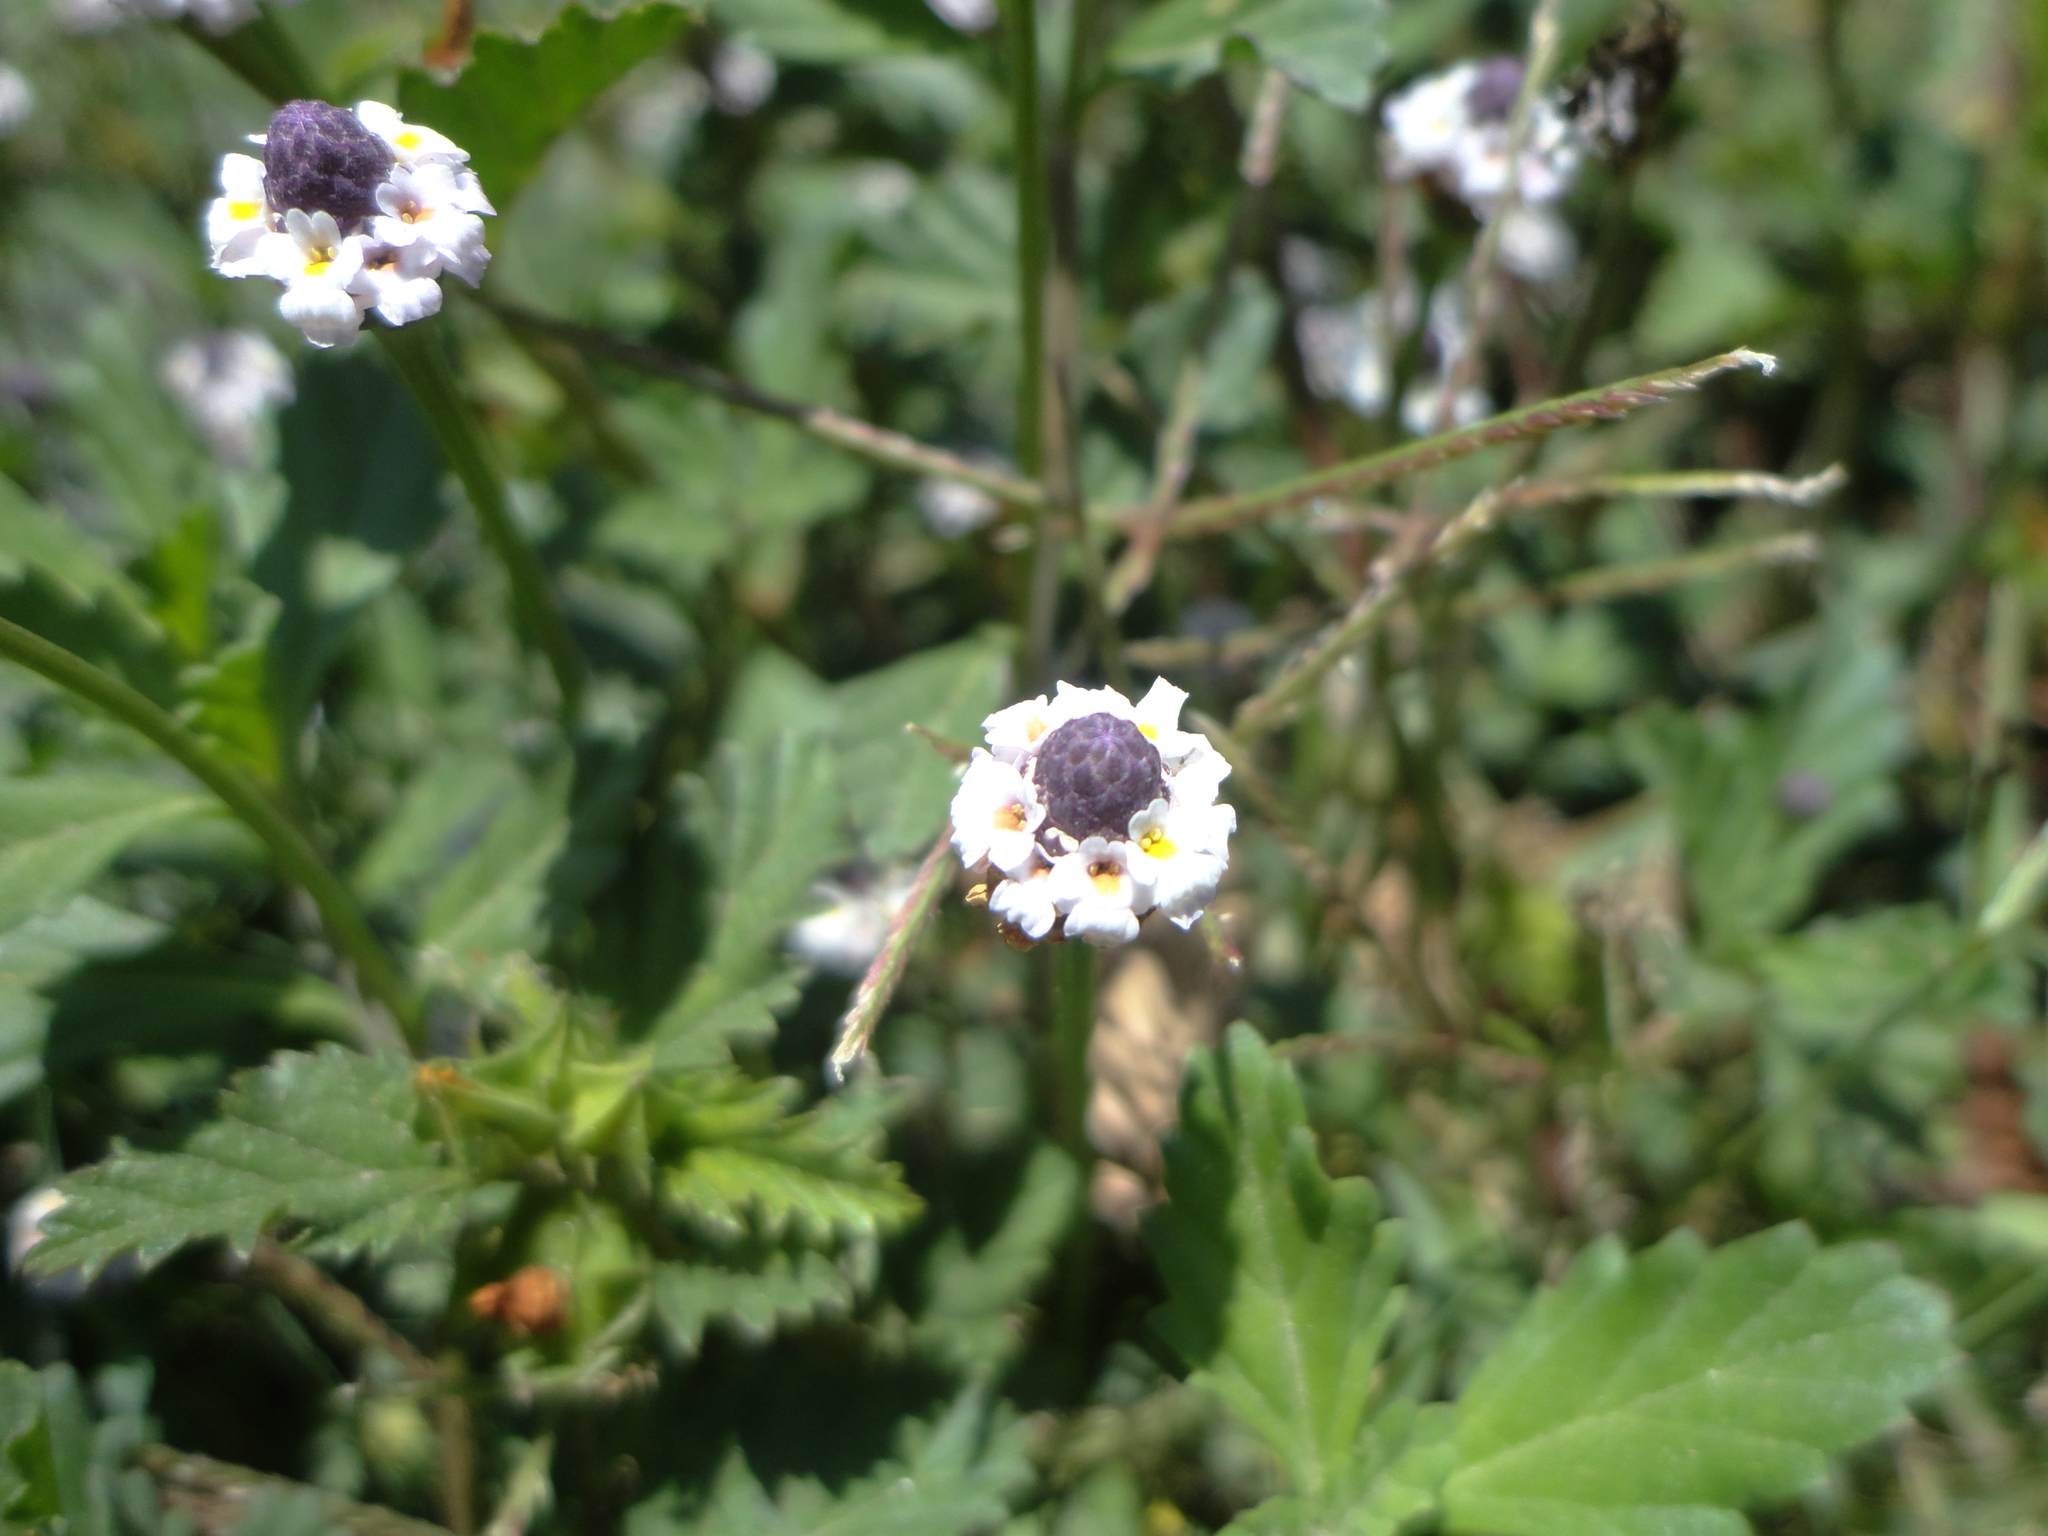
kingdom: Plantae
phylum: Tracheophyta
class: Magnoliopsida
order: Lamiales
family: Verbenaceae
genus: Phyla
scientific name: Phyla nodiflora
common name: Frogfruit
